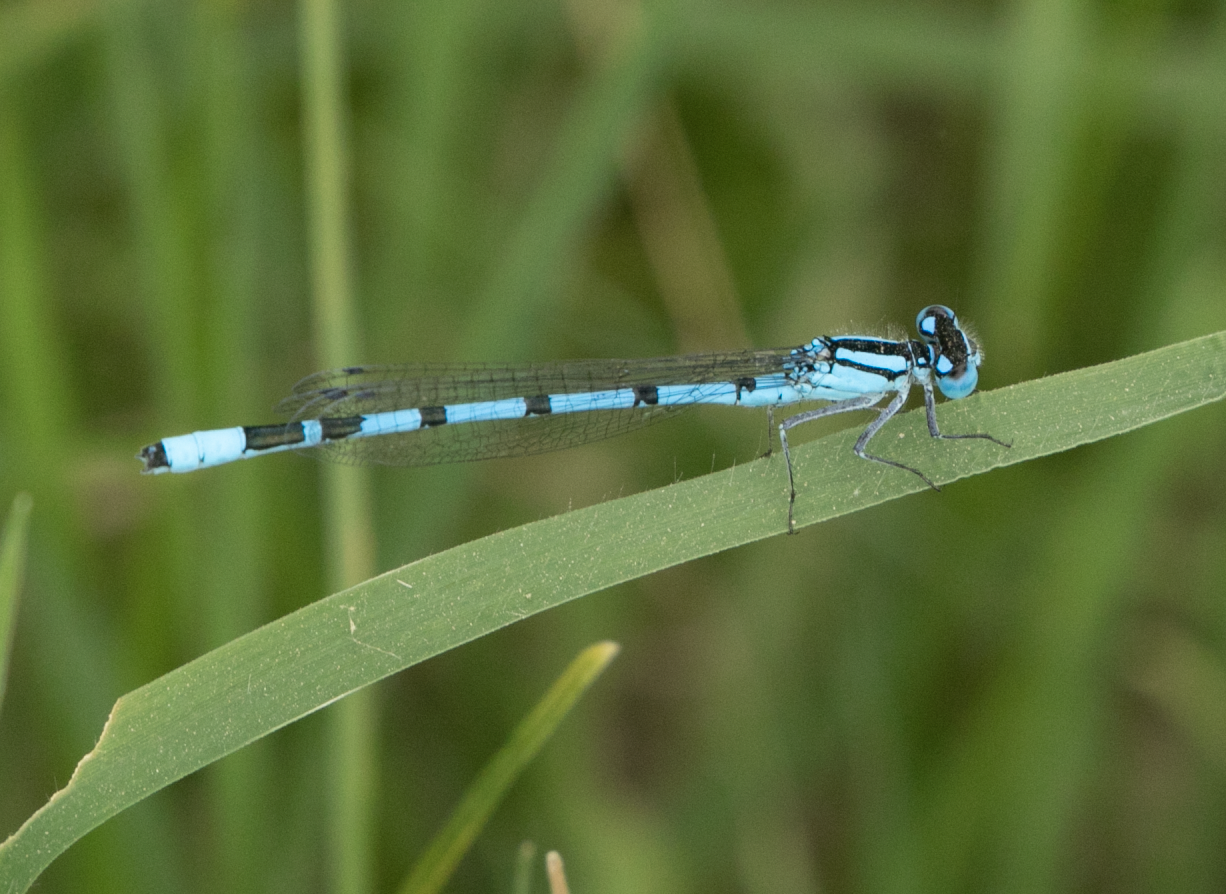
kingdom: Animalia
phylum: Arthropoda
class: Insecta
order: Odonata
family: Coenagrionidae
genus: Enallagma
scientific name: Enallagma cyathigerum
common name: Common blue damselfly
